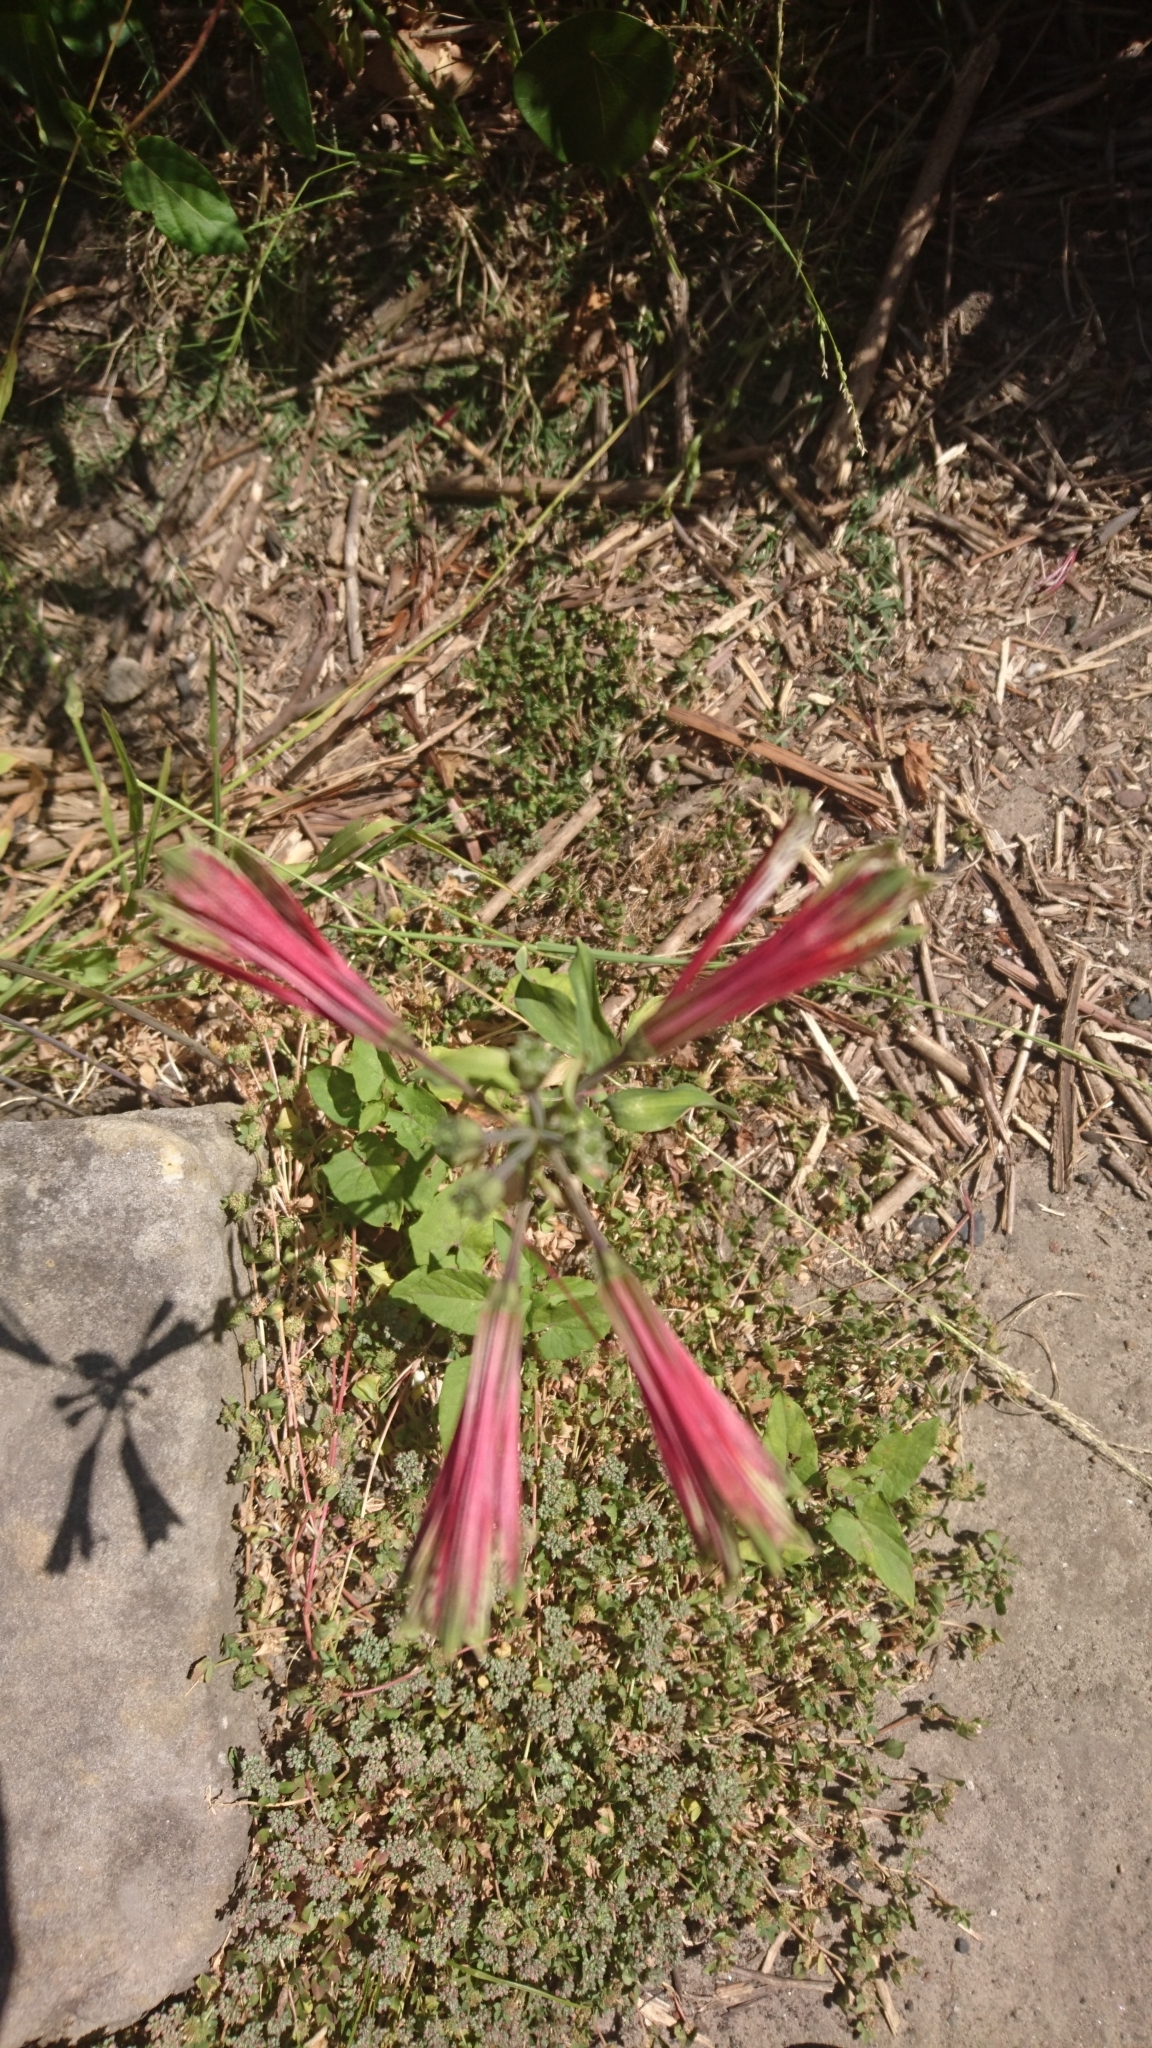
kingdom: Plantae
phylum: Tracheophyta
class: Liliopsida
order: Liliales
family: Alstroemeriaceae
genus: Alstroemeria
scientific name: Alstroemeria psittacina
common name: Peruvian-lily
